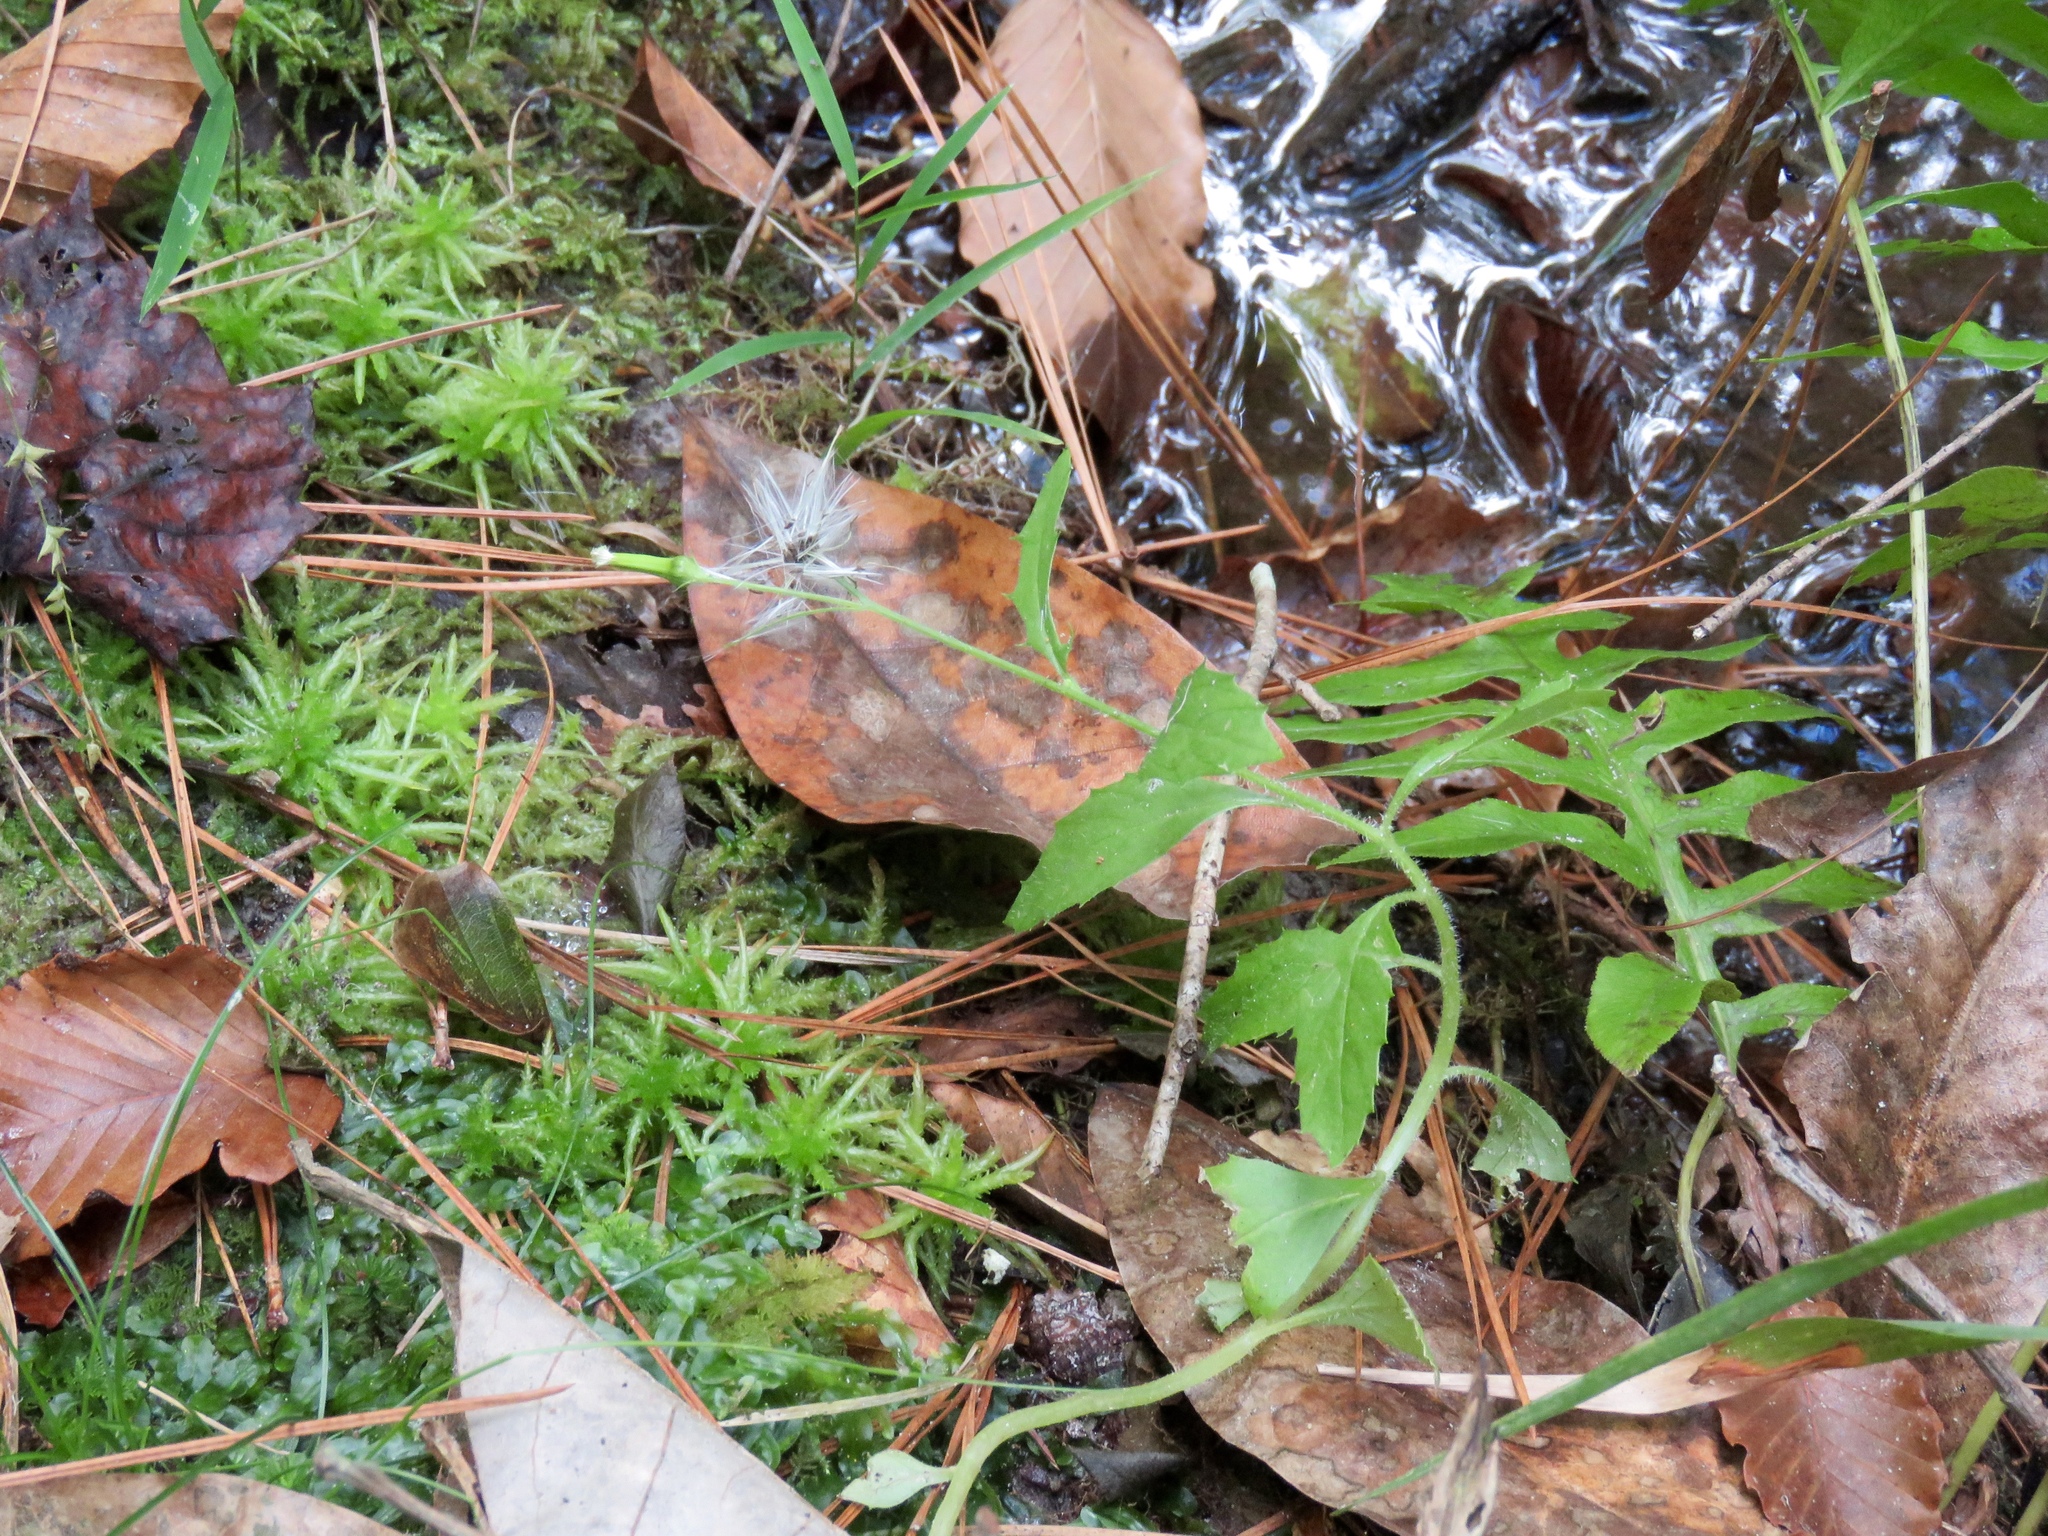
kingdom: Plantae
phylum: Tracheophyta
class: Magnoliopsida
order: Asterales
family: Asteraceae
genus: Erechtites
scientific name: Erechtites hieraciifolius
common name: American burnweed
